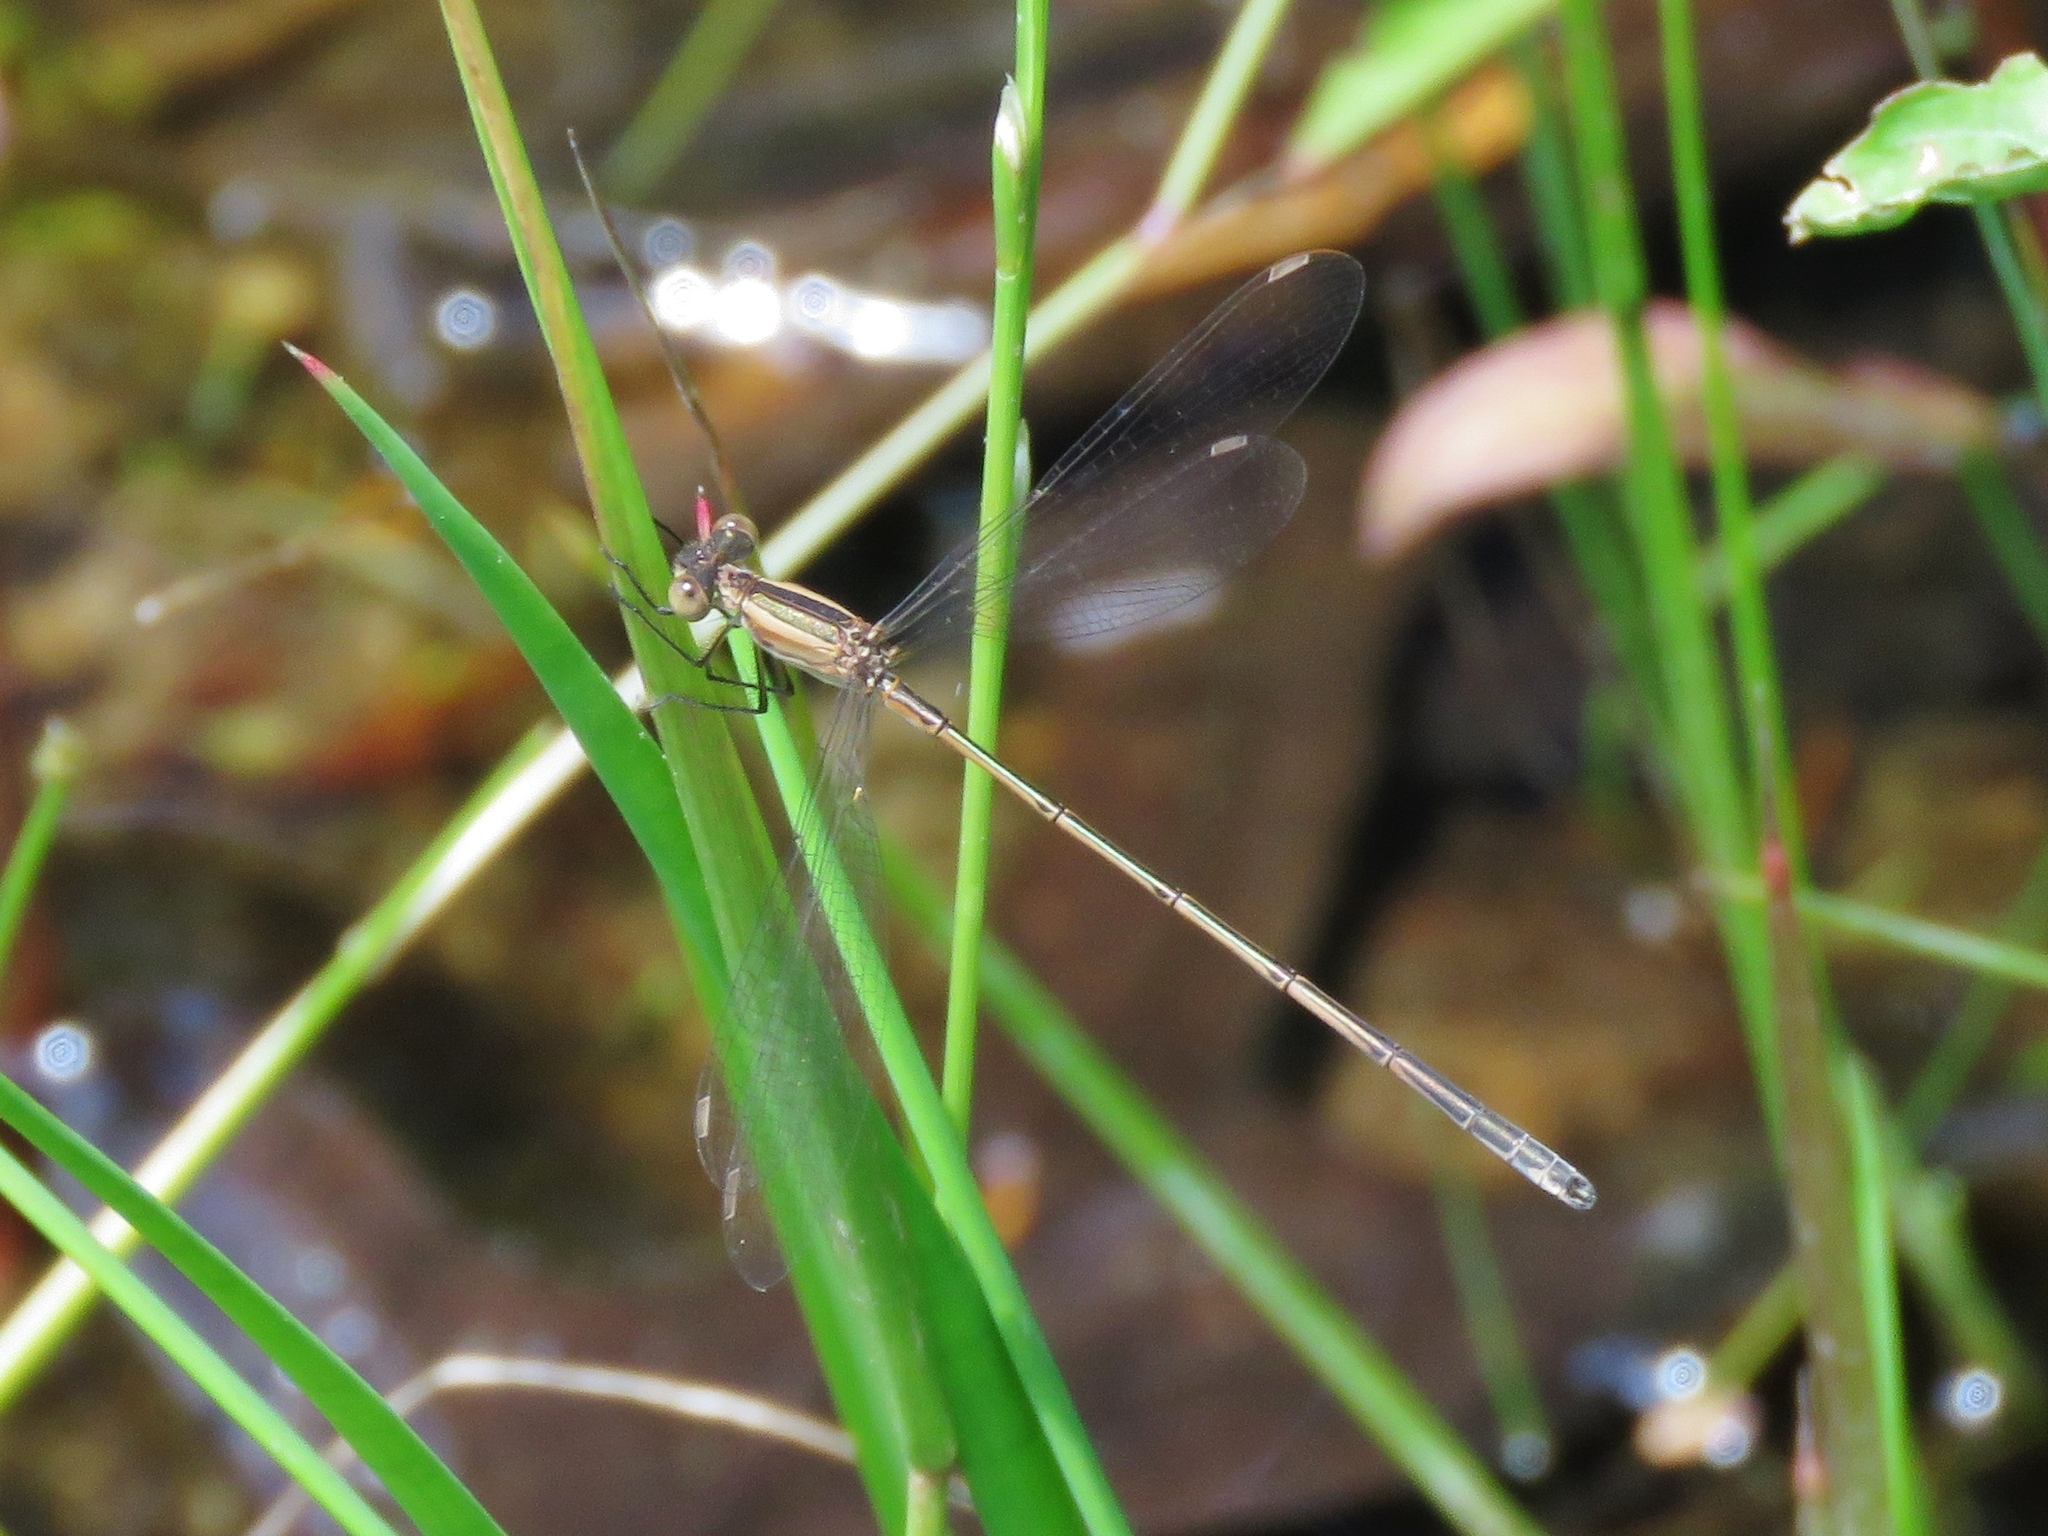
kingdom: Animalia
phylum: Arthropoda
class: Insecta
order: Odonata
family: Lestidae
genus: Lestes
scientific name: Lestes alacer
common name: Plateau spreadwing
